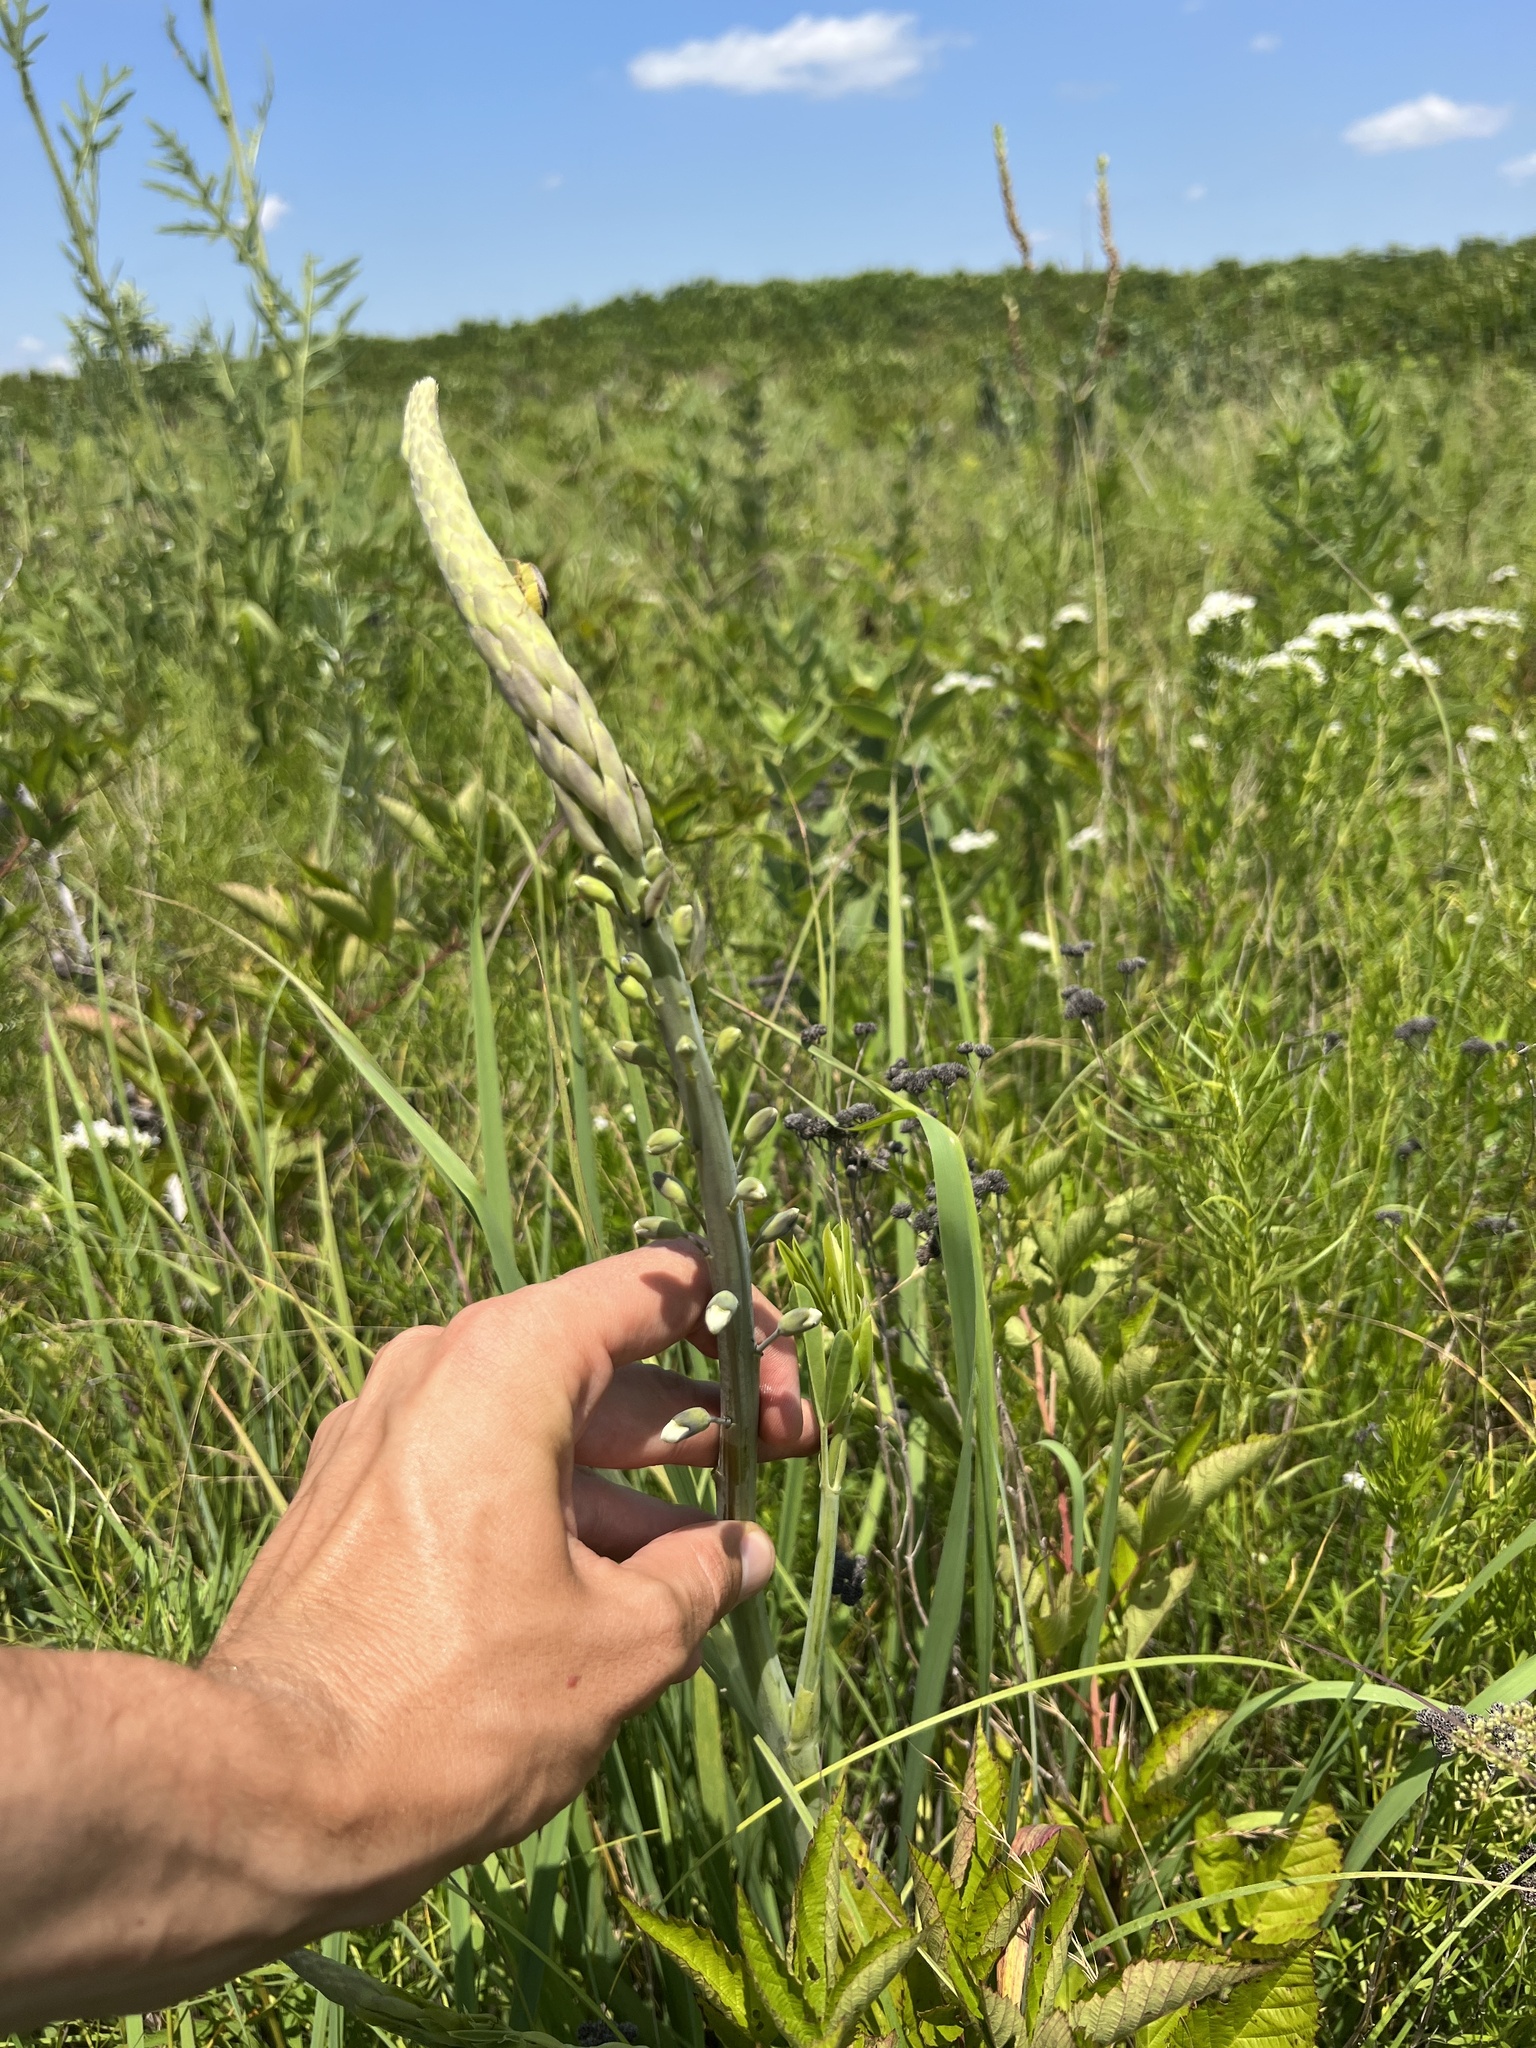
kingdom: Plantae
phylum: Tracheophyta
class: Magnoliopsida
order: Fabales
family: Fabaceae
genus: Baptisia
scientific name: Baptisia alba
